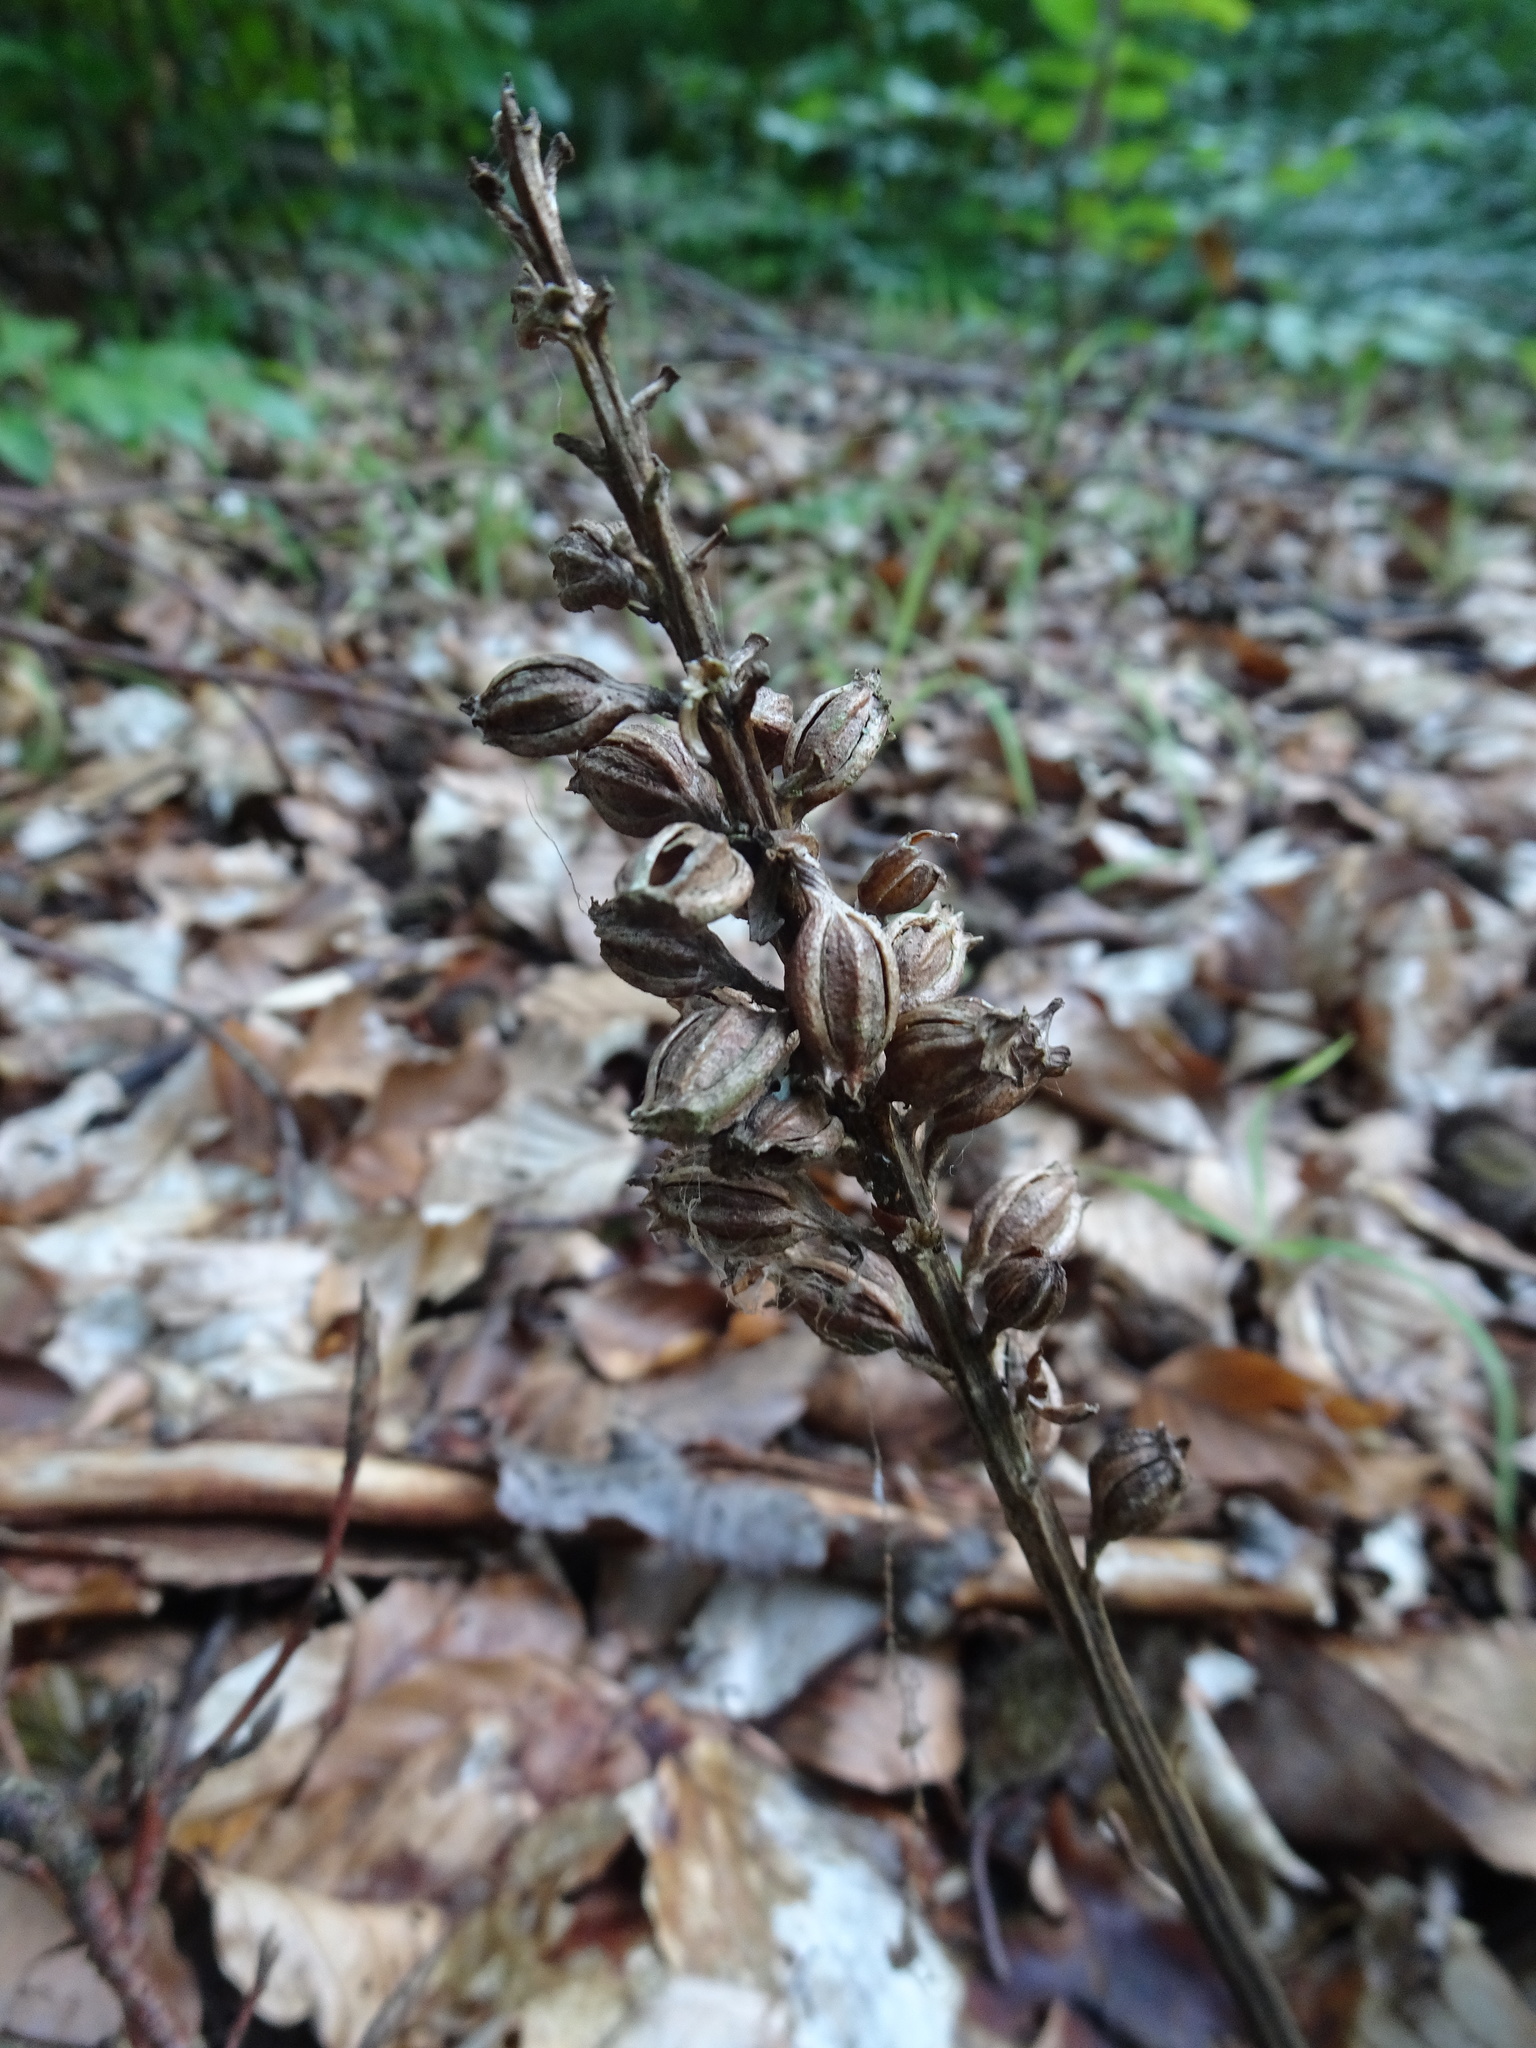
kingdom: Plantae
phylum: Tracheophyta
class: Liliopsida
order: Asparagales
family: Orchidaceae
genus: Neottia
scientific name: Neottia nidus-avis
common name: Bird's-nest orchid
